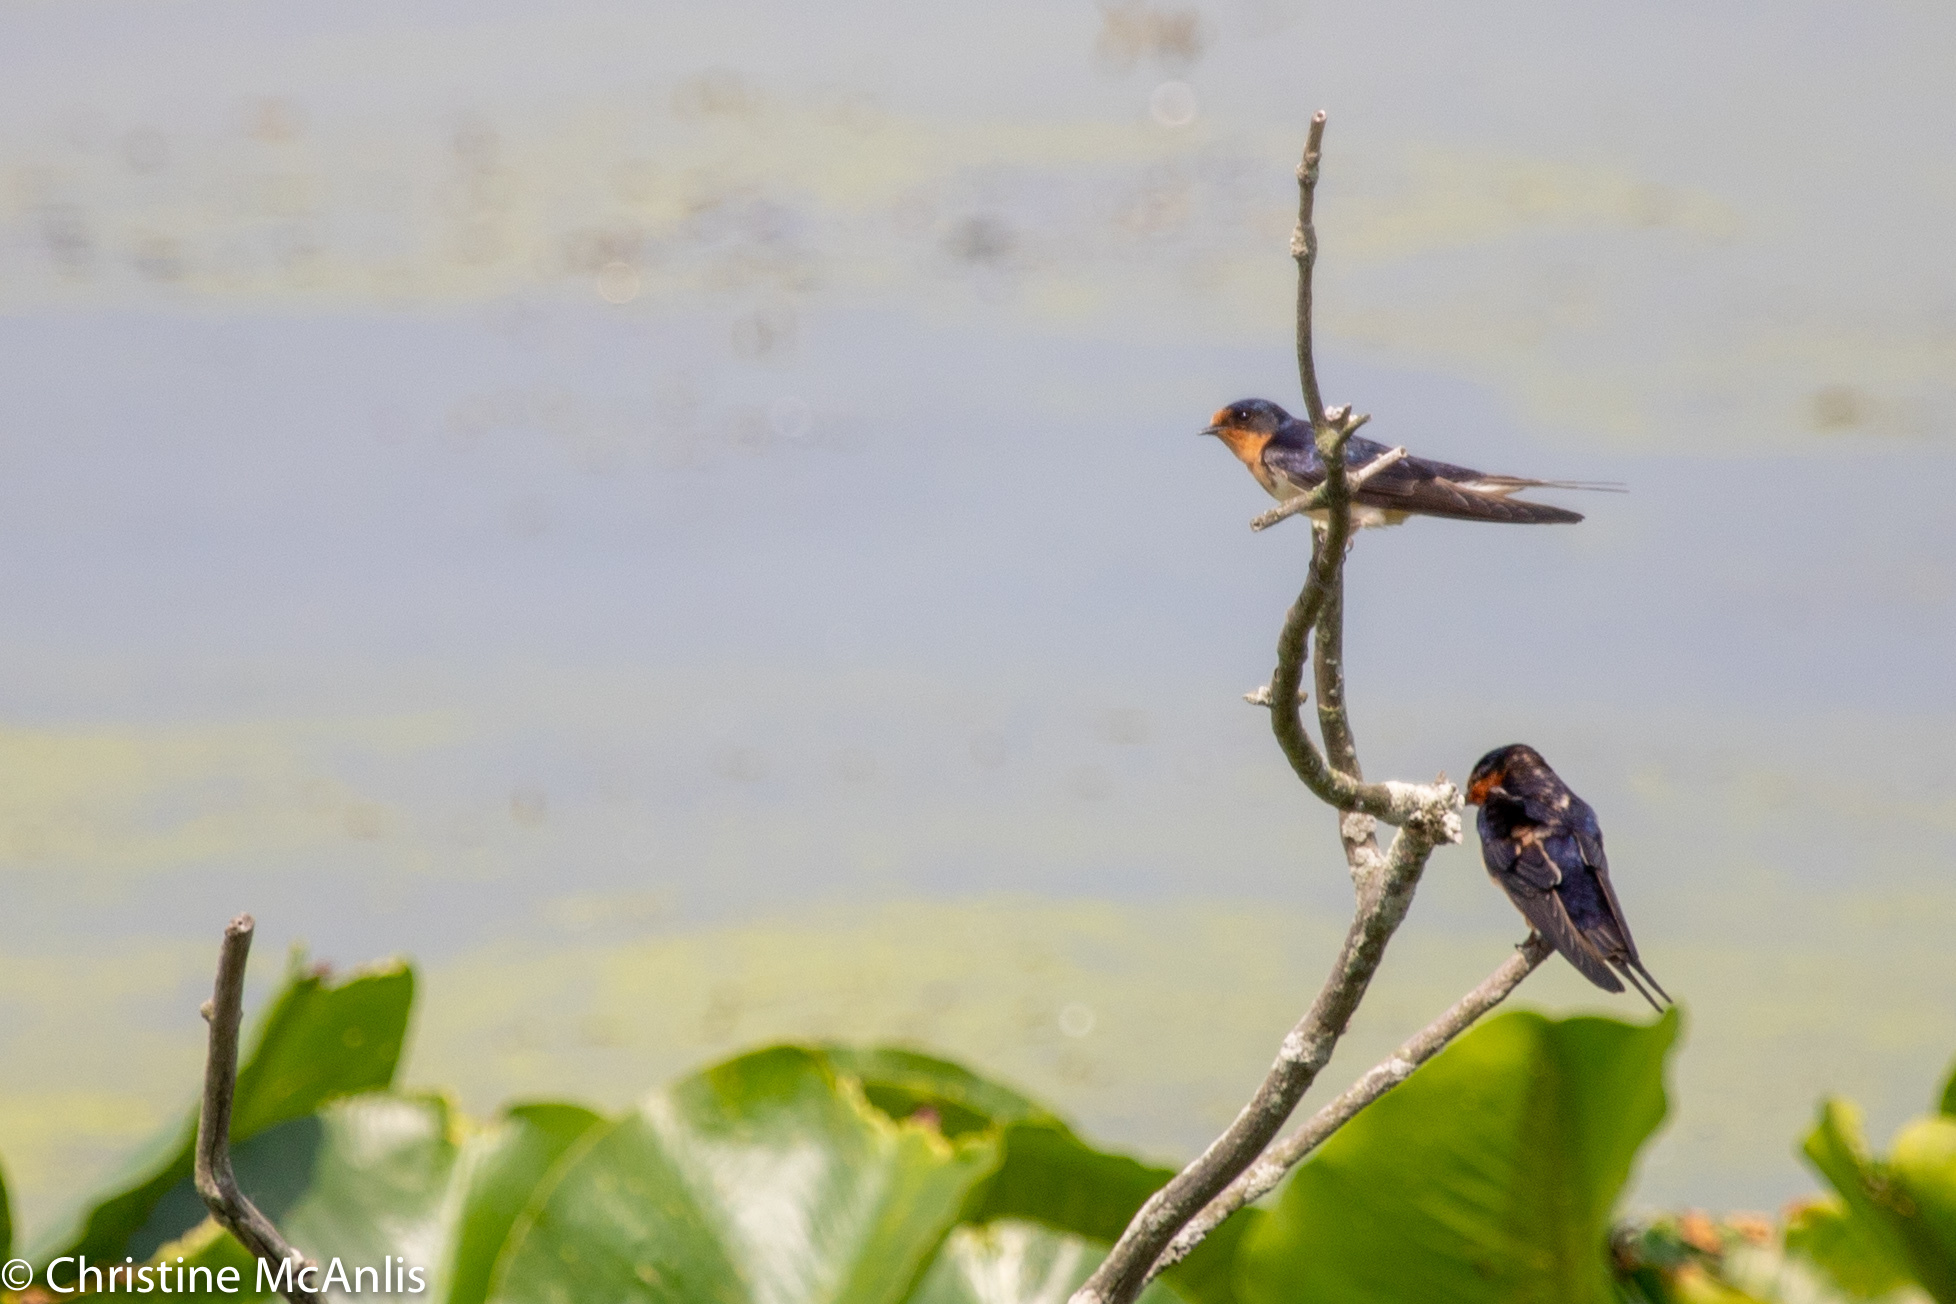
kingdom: Animalia
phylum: Chordata
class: Aves
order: Passeriformes
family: Hirundinidae
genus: Hirundo
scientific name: Hirundo rustica
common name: Barn swallow
